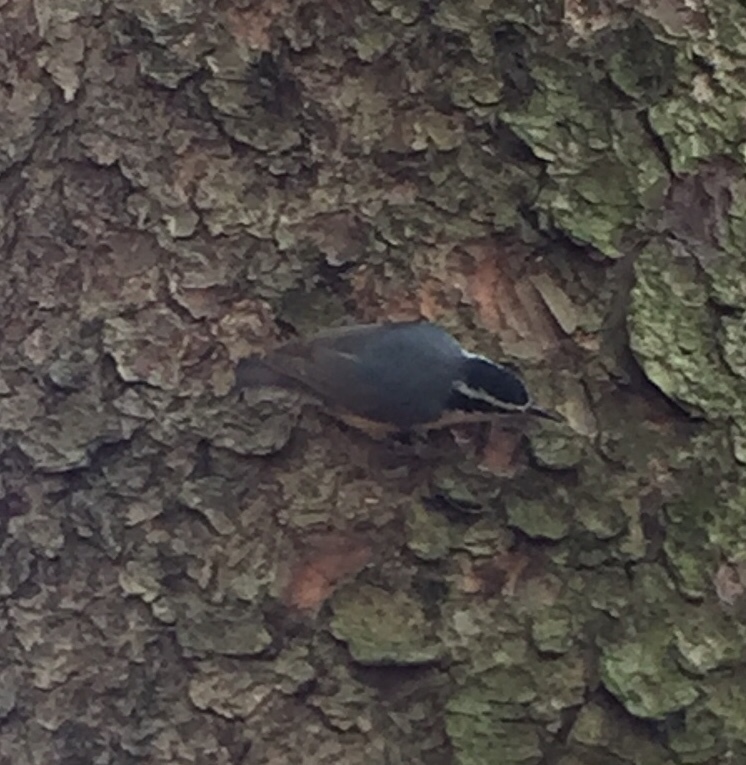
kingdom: Animalia
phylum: Chordata
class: Aves
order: Passeriformes
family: Sittidae
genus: Sitta
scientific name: Sitta canadensis
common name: Red-breasted nuthatch
